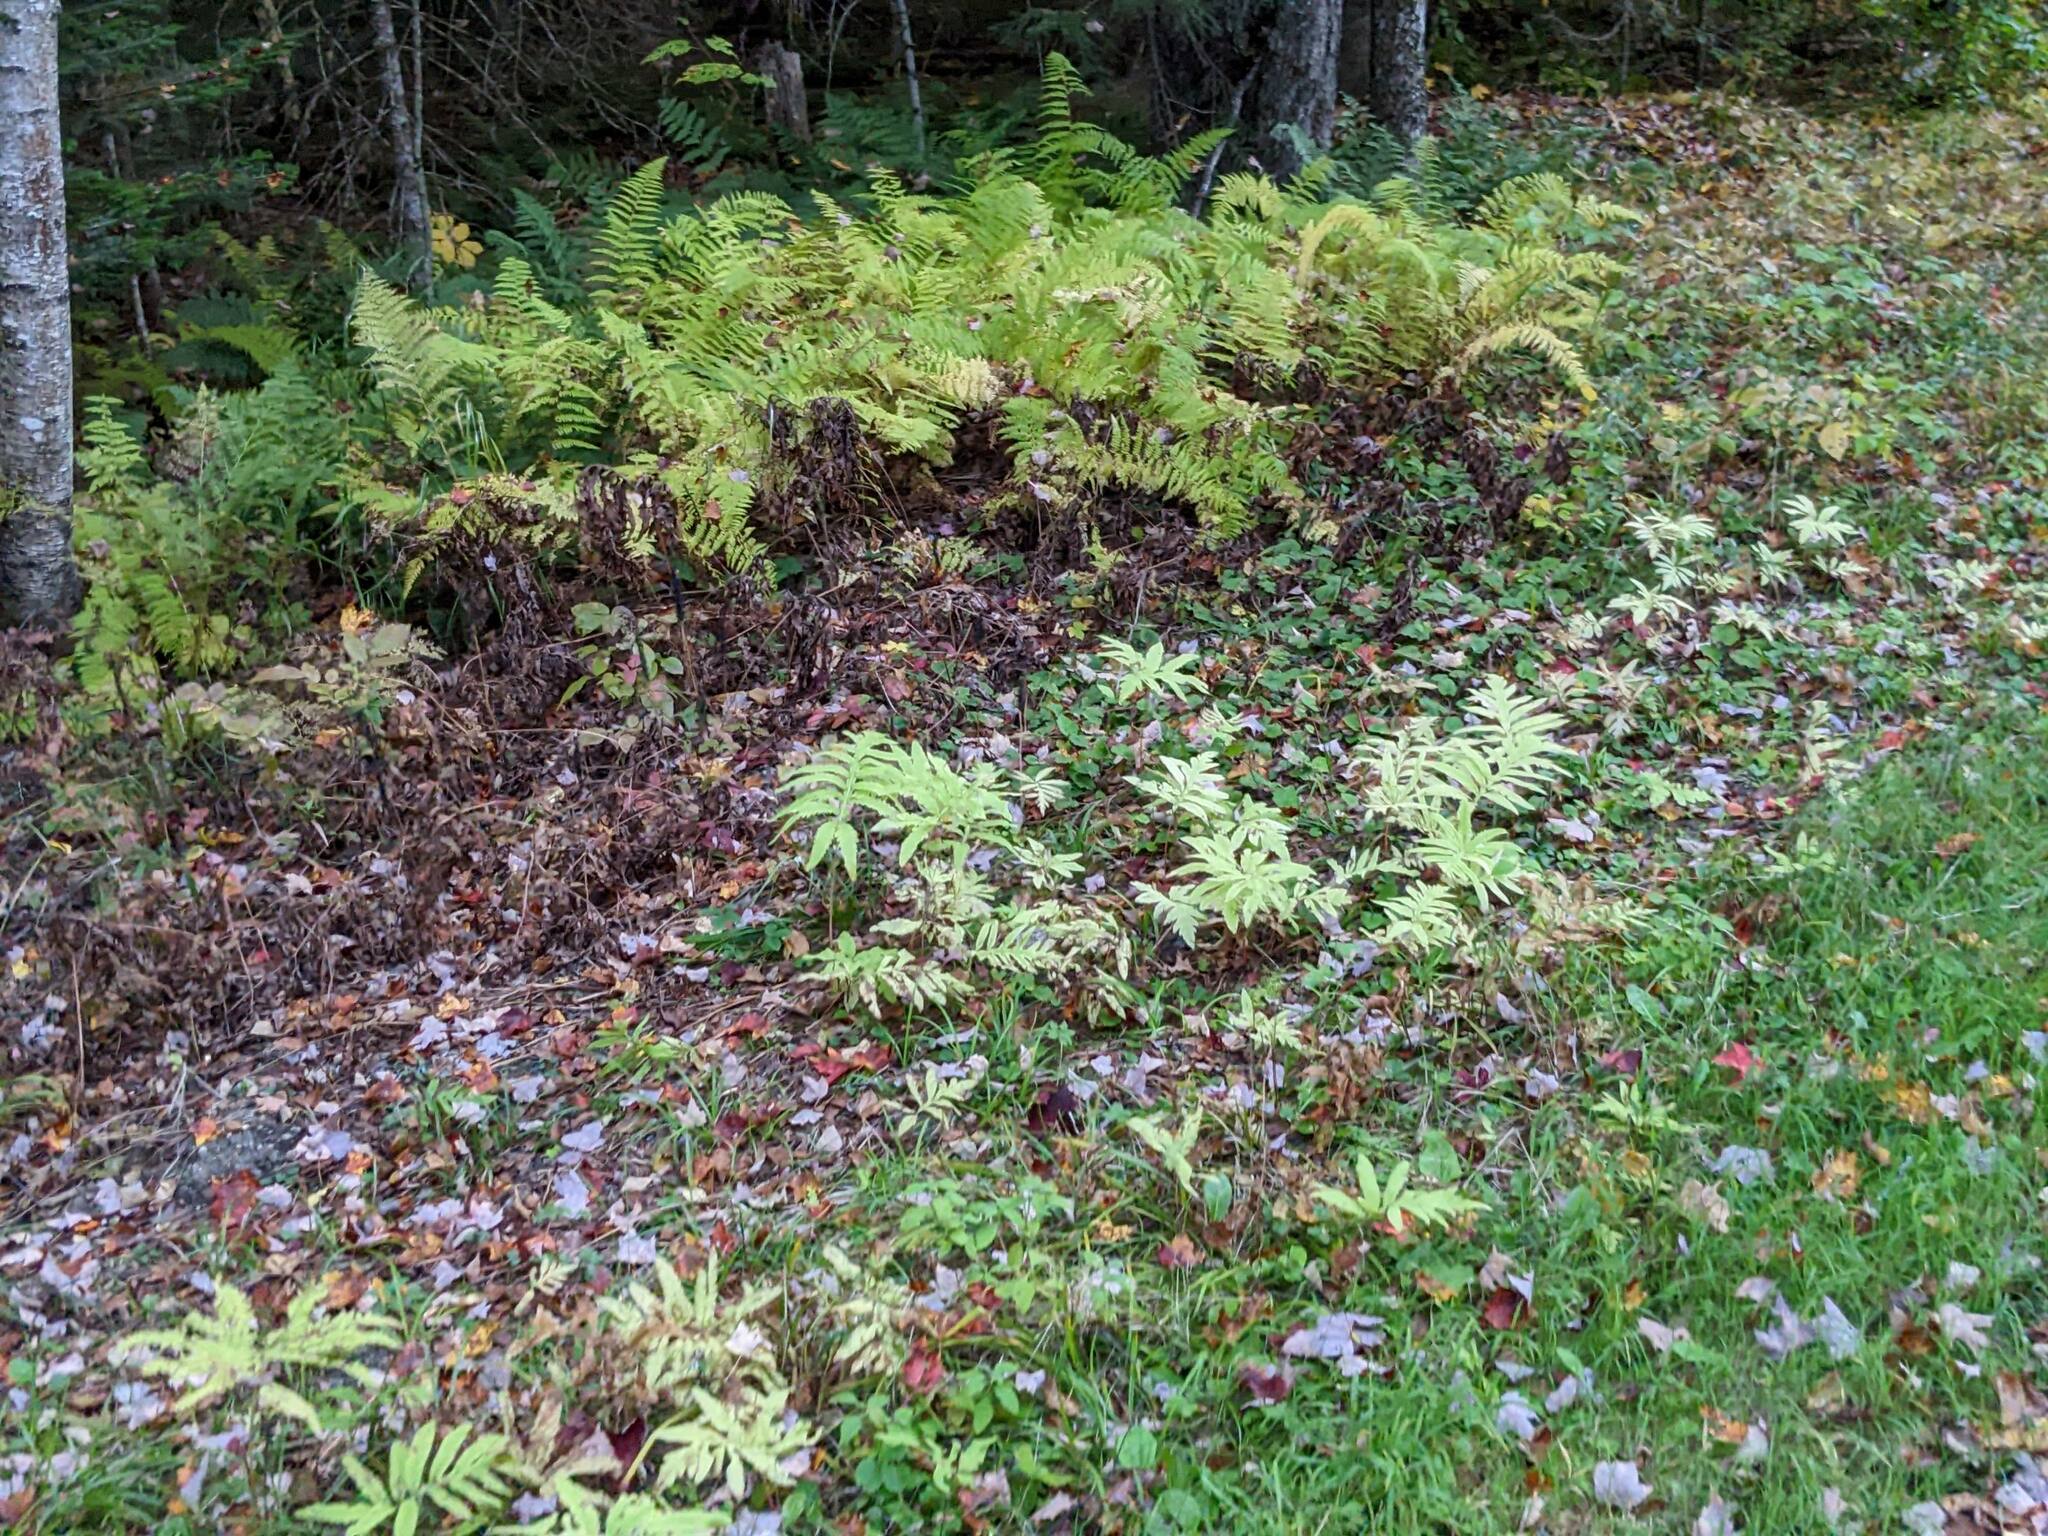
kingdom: Plantae
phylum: Tracheophyta
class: Polypodiopsida
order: Polypodiales
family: Onocleaceae
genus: Onoclea
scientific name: Onoclea sensibilis
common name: Sensitive fern
